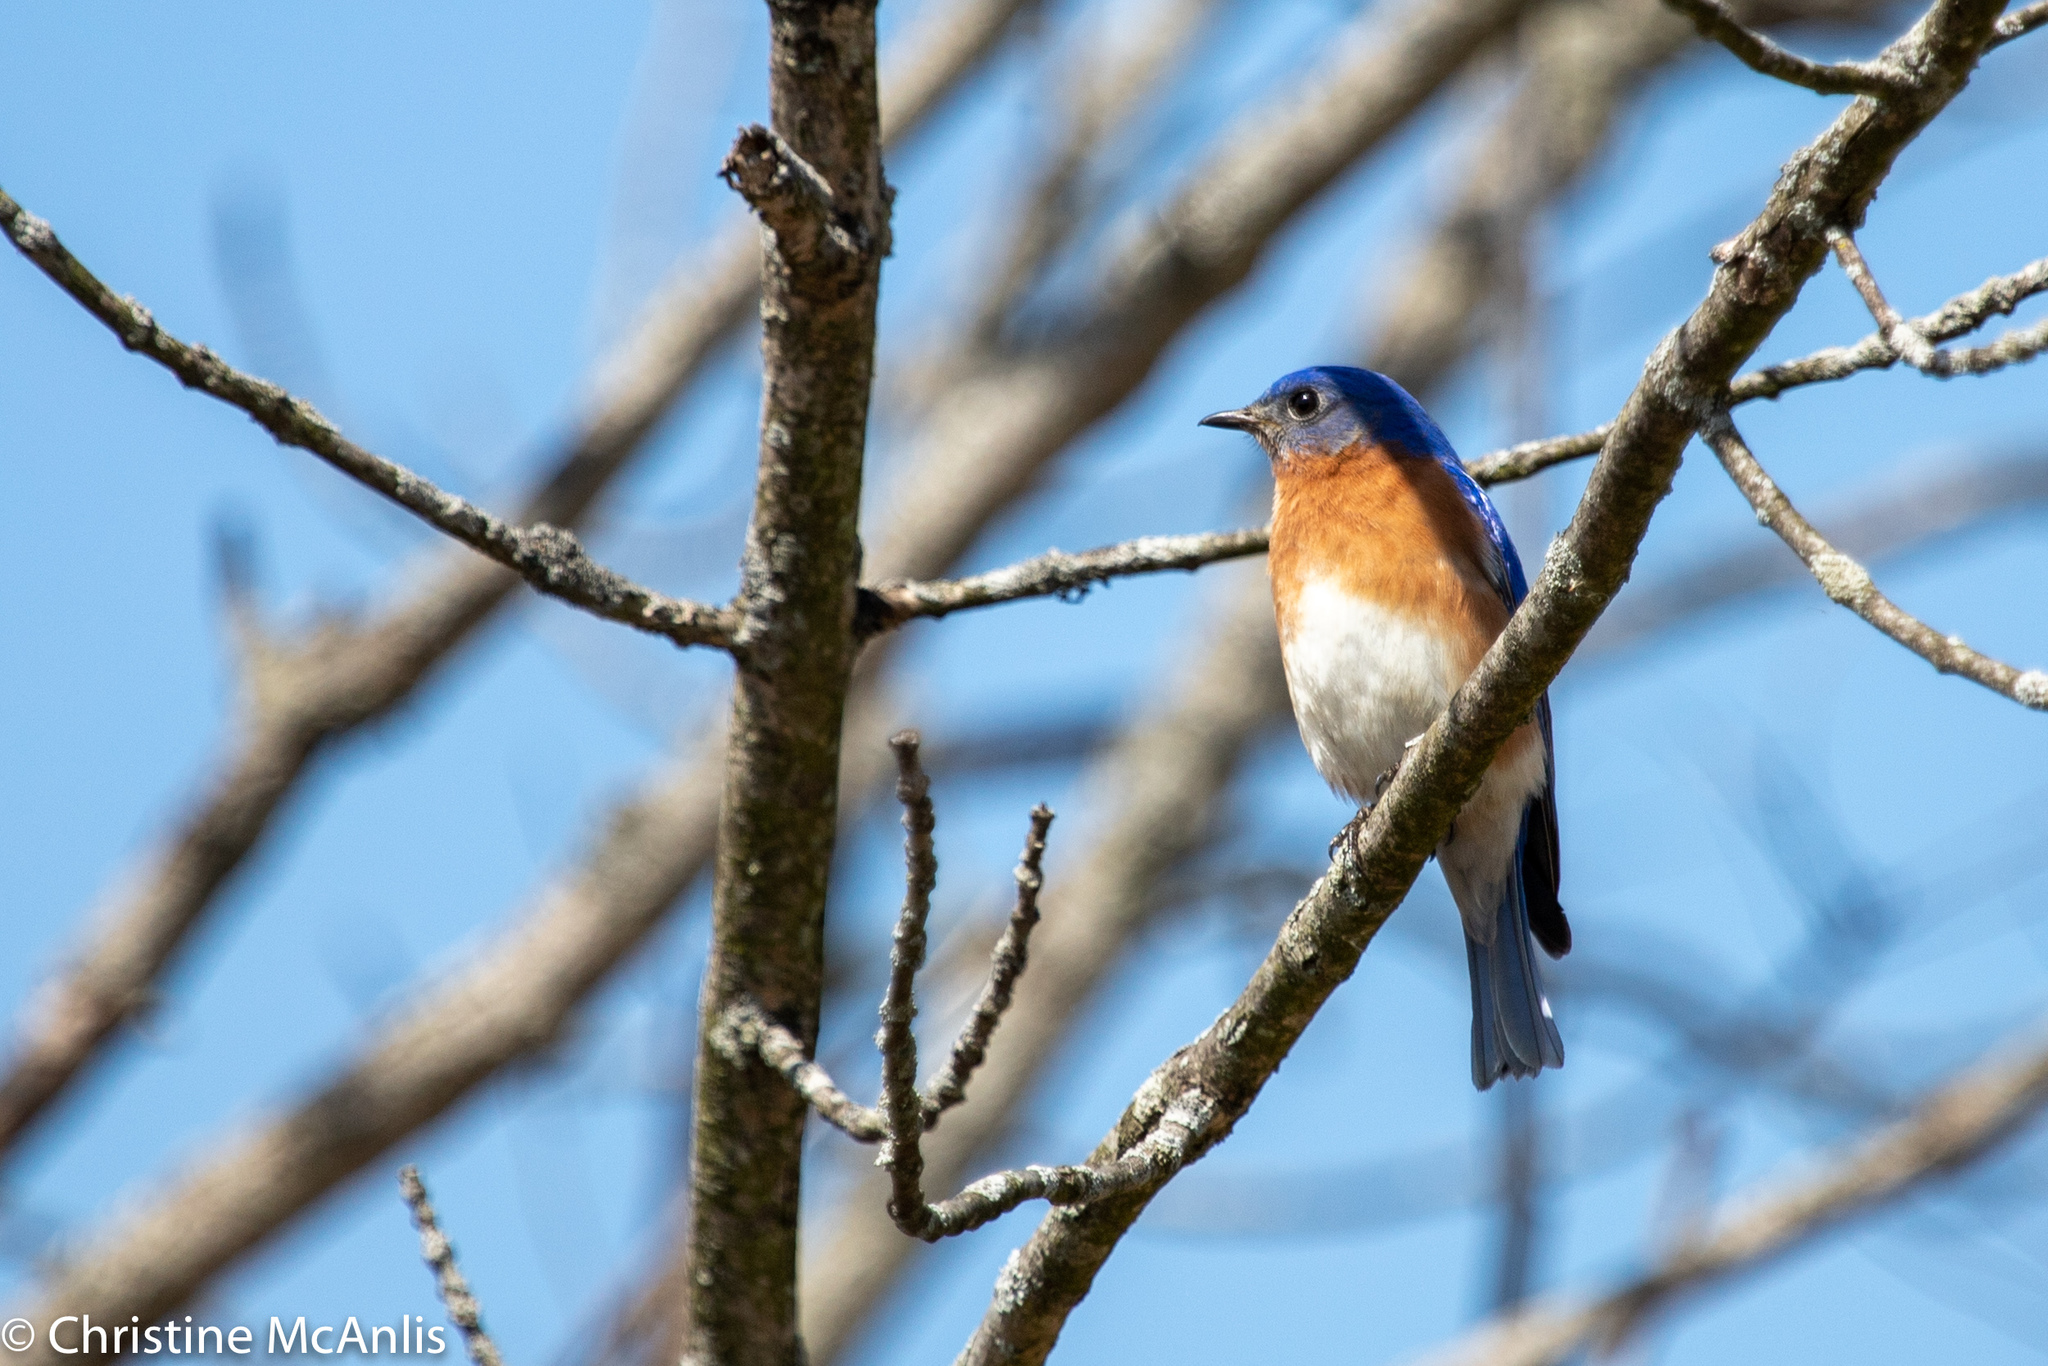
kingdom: Animalia
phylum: Chordata
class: Aves
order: Passeriformes
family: Turdidae
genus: Sialia
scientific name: Sialia sialis
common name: Eastern bluebird
